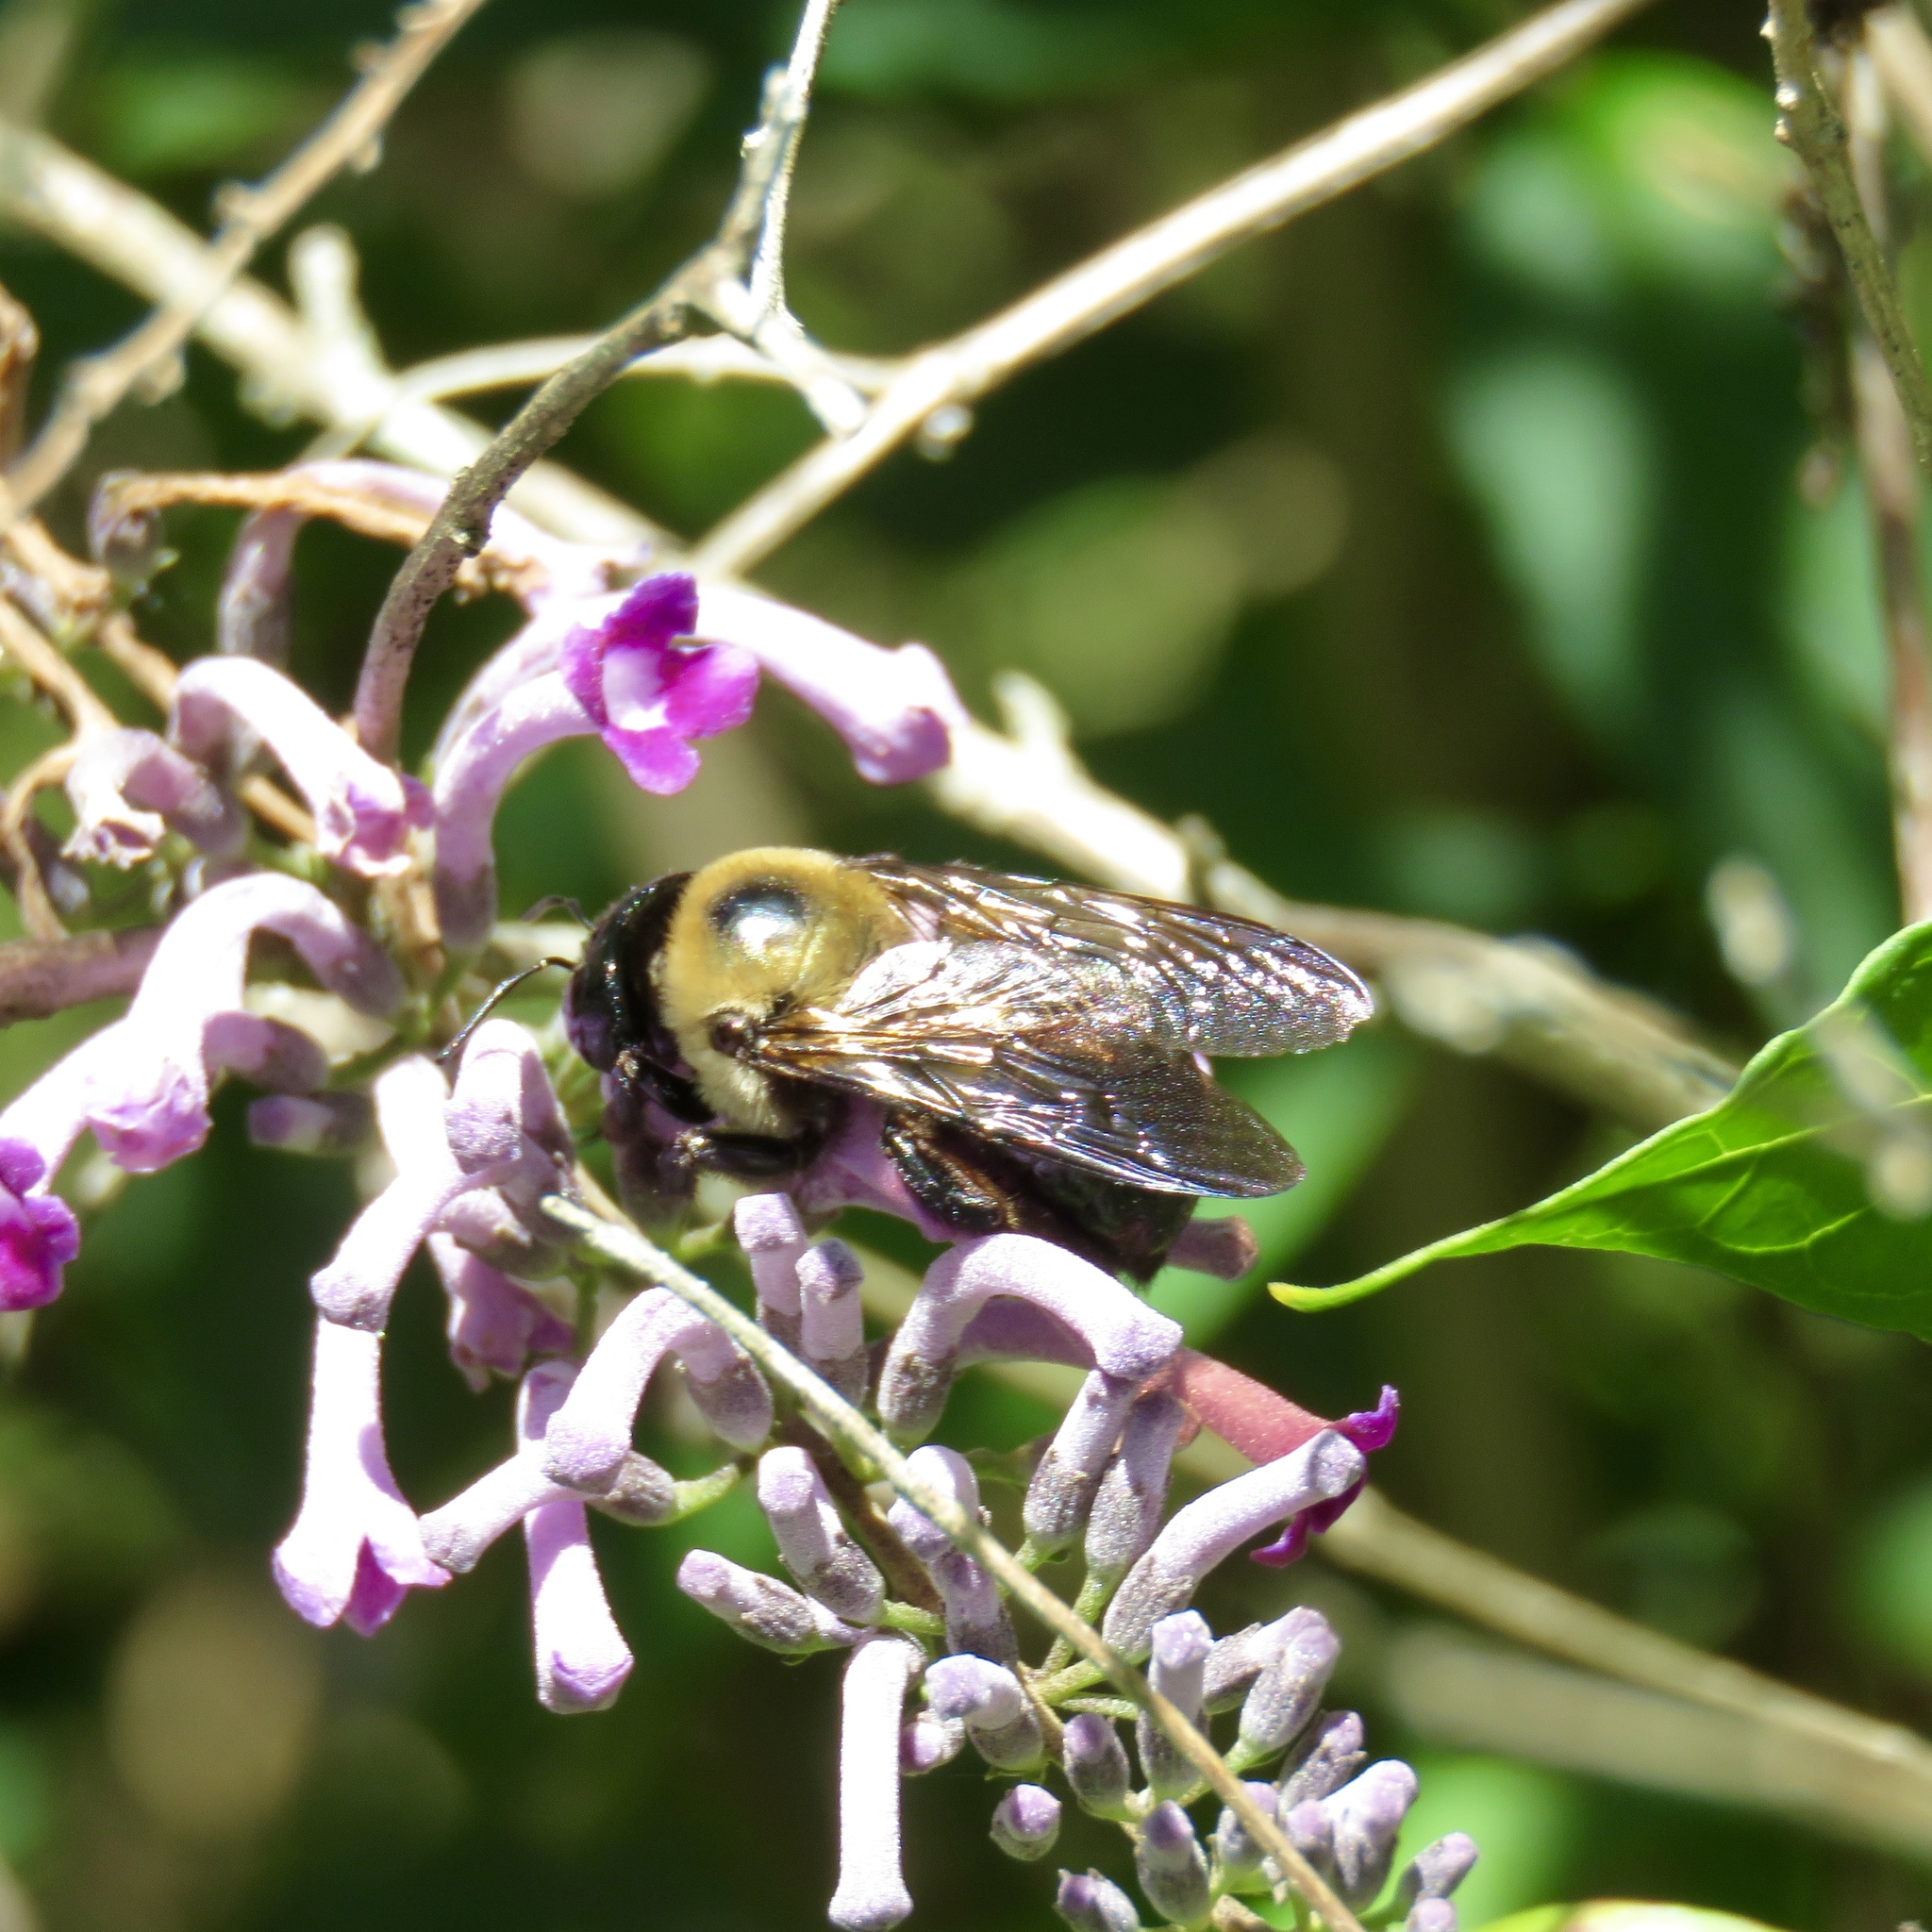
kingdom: Animalia
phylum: Arthropoda
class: Insecta
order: Hymenoptera
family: Apidae
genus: Xylocopa
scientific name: Xylocopa virginica
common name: Carpenter bee
